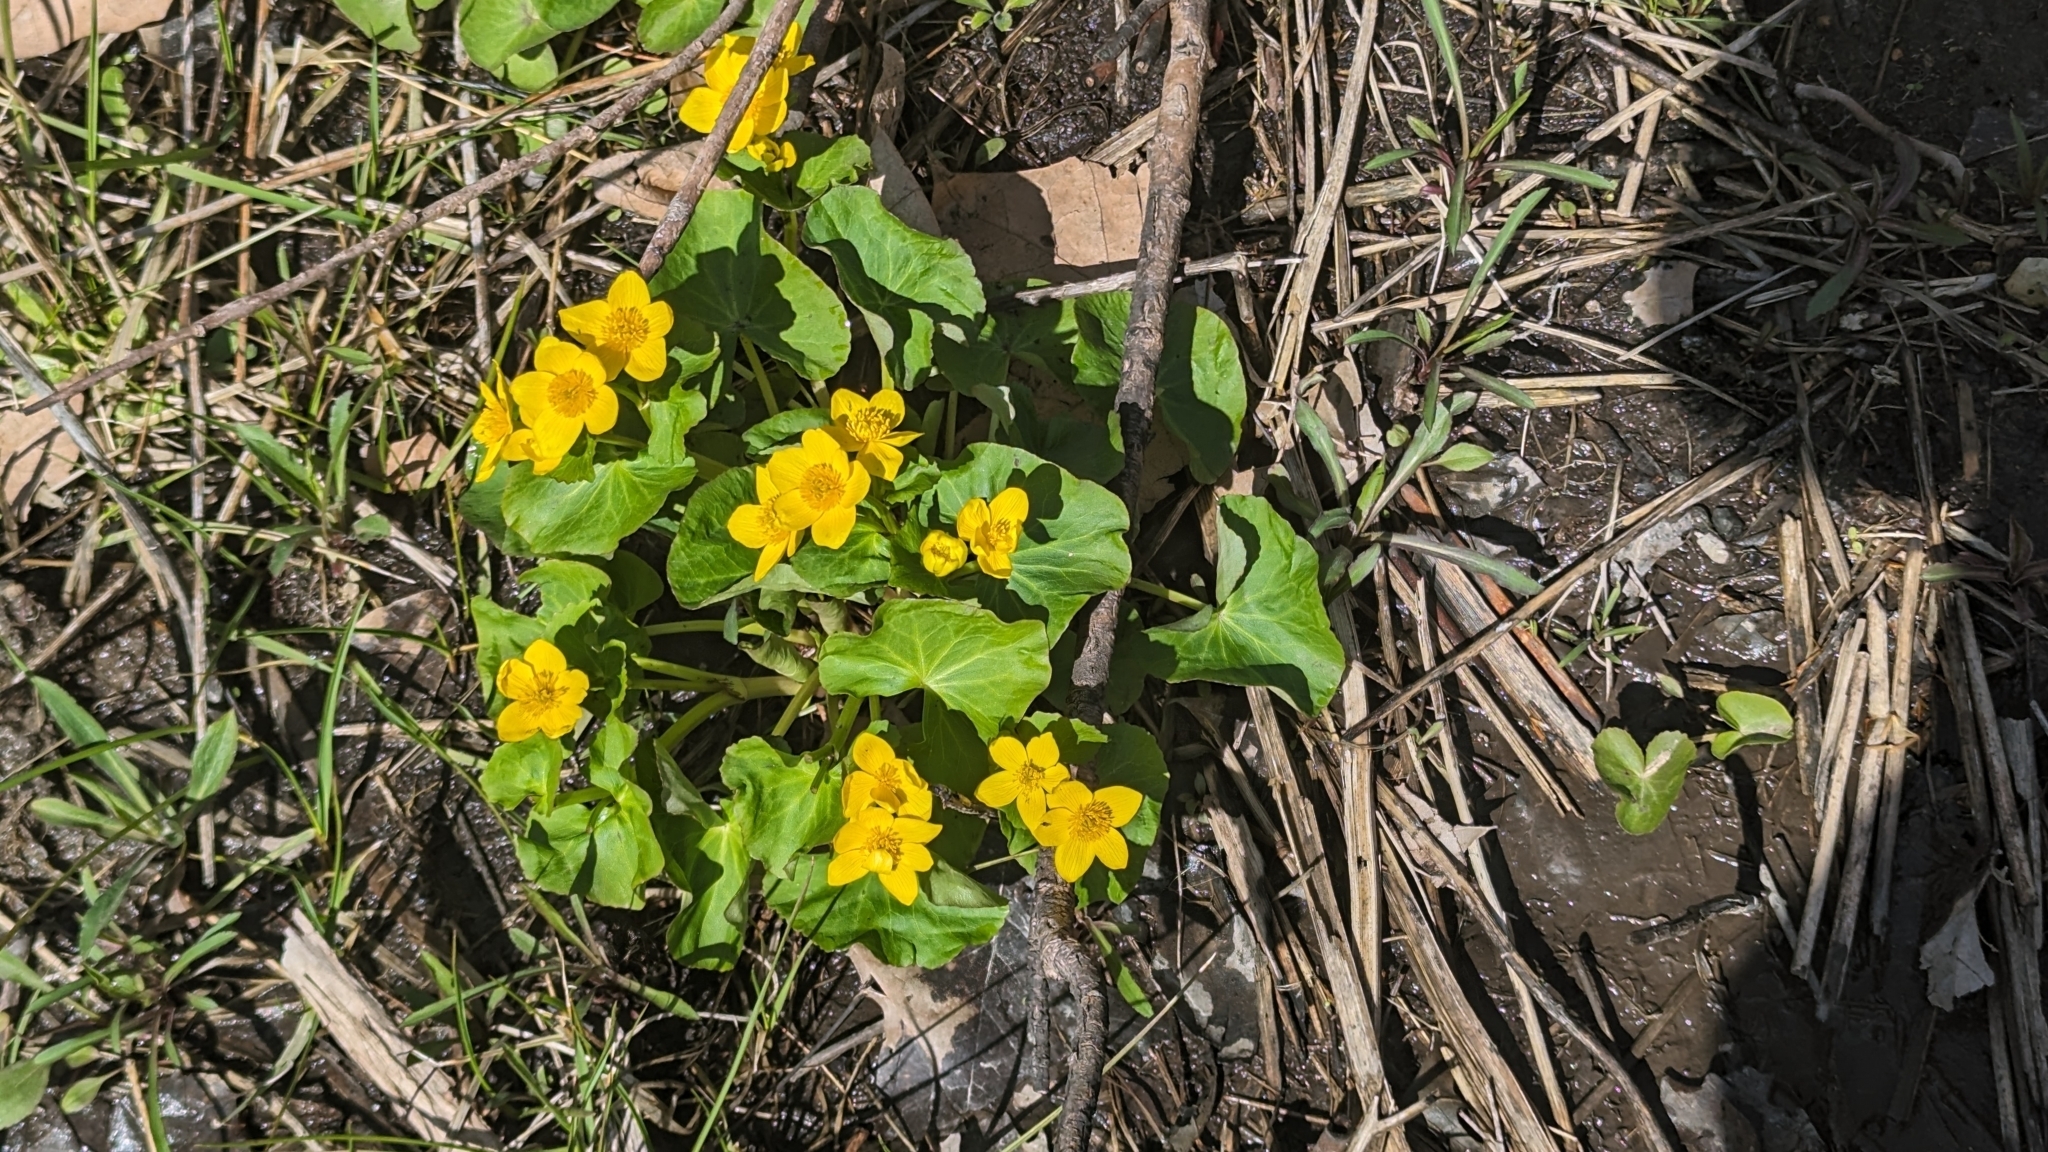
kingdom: Plantae
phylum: Tracheophyta
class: Magnoliopsida
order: Ranunculales
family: Ranunculaceae
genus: Caltha
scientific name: Caltha palustris
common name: Marsh marigold
